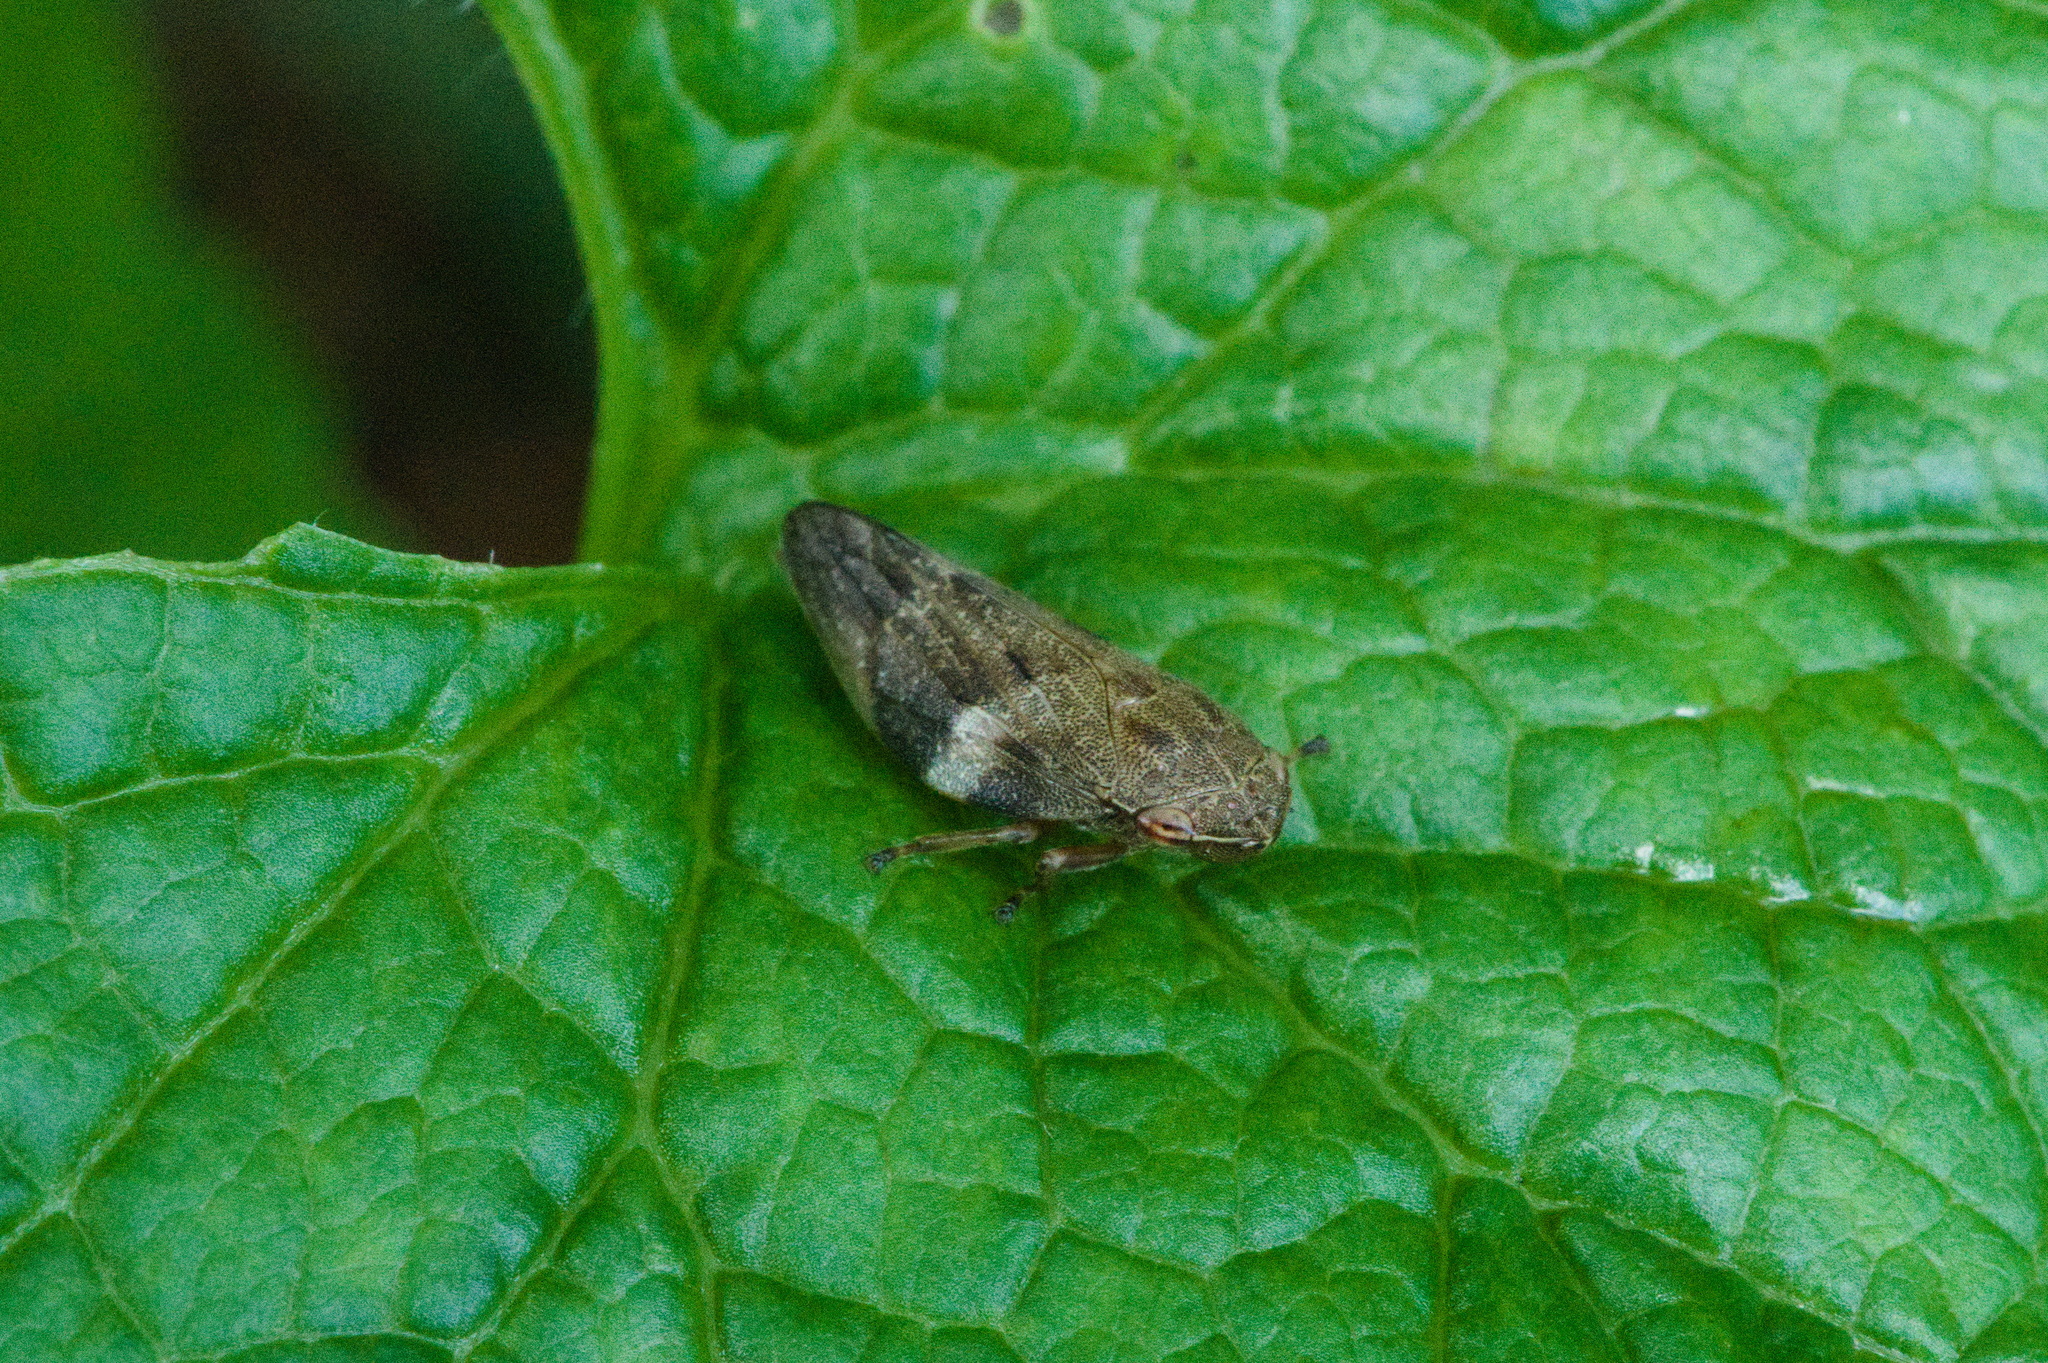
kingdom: Animalia
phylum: Arthropoda
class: Insecta
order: Hemiptera
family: Aphrophoridae
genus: Aphrophora
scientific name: Aphrophora alni
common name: European alder spittlebug
